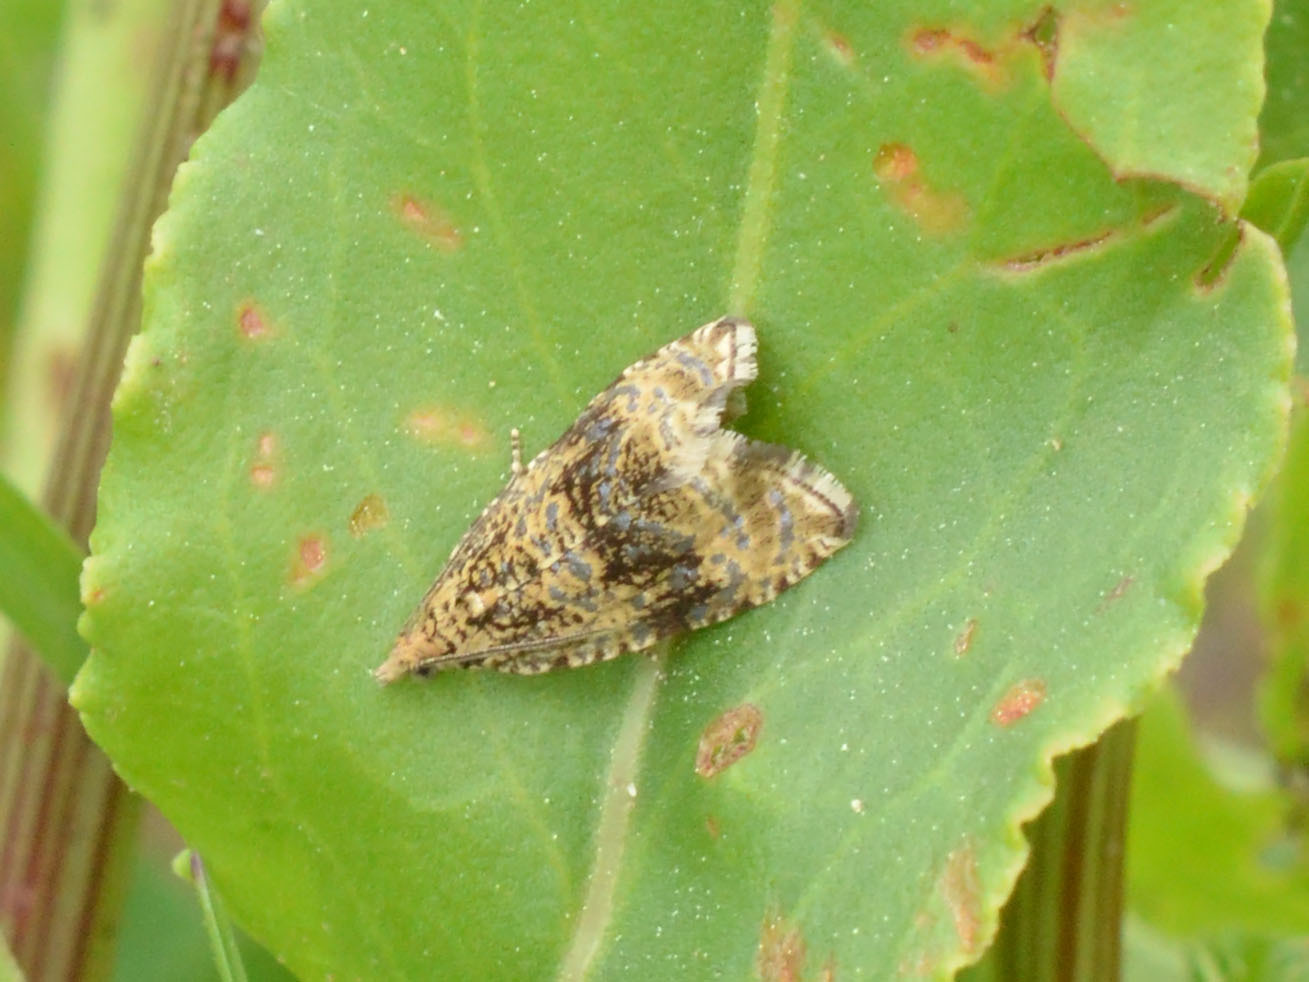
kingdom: Animalia
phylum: Arthropoda
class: Insecta
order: Lepidoptera
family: Tortricidae
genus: Syricoris
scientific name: Syricoris lacunana
